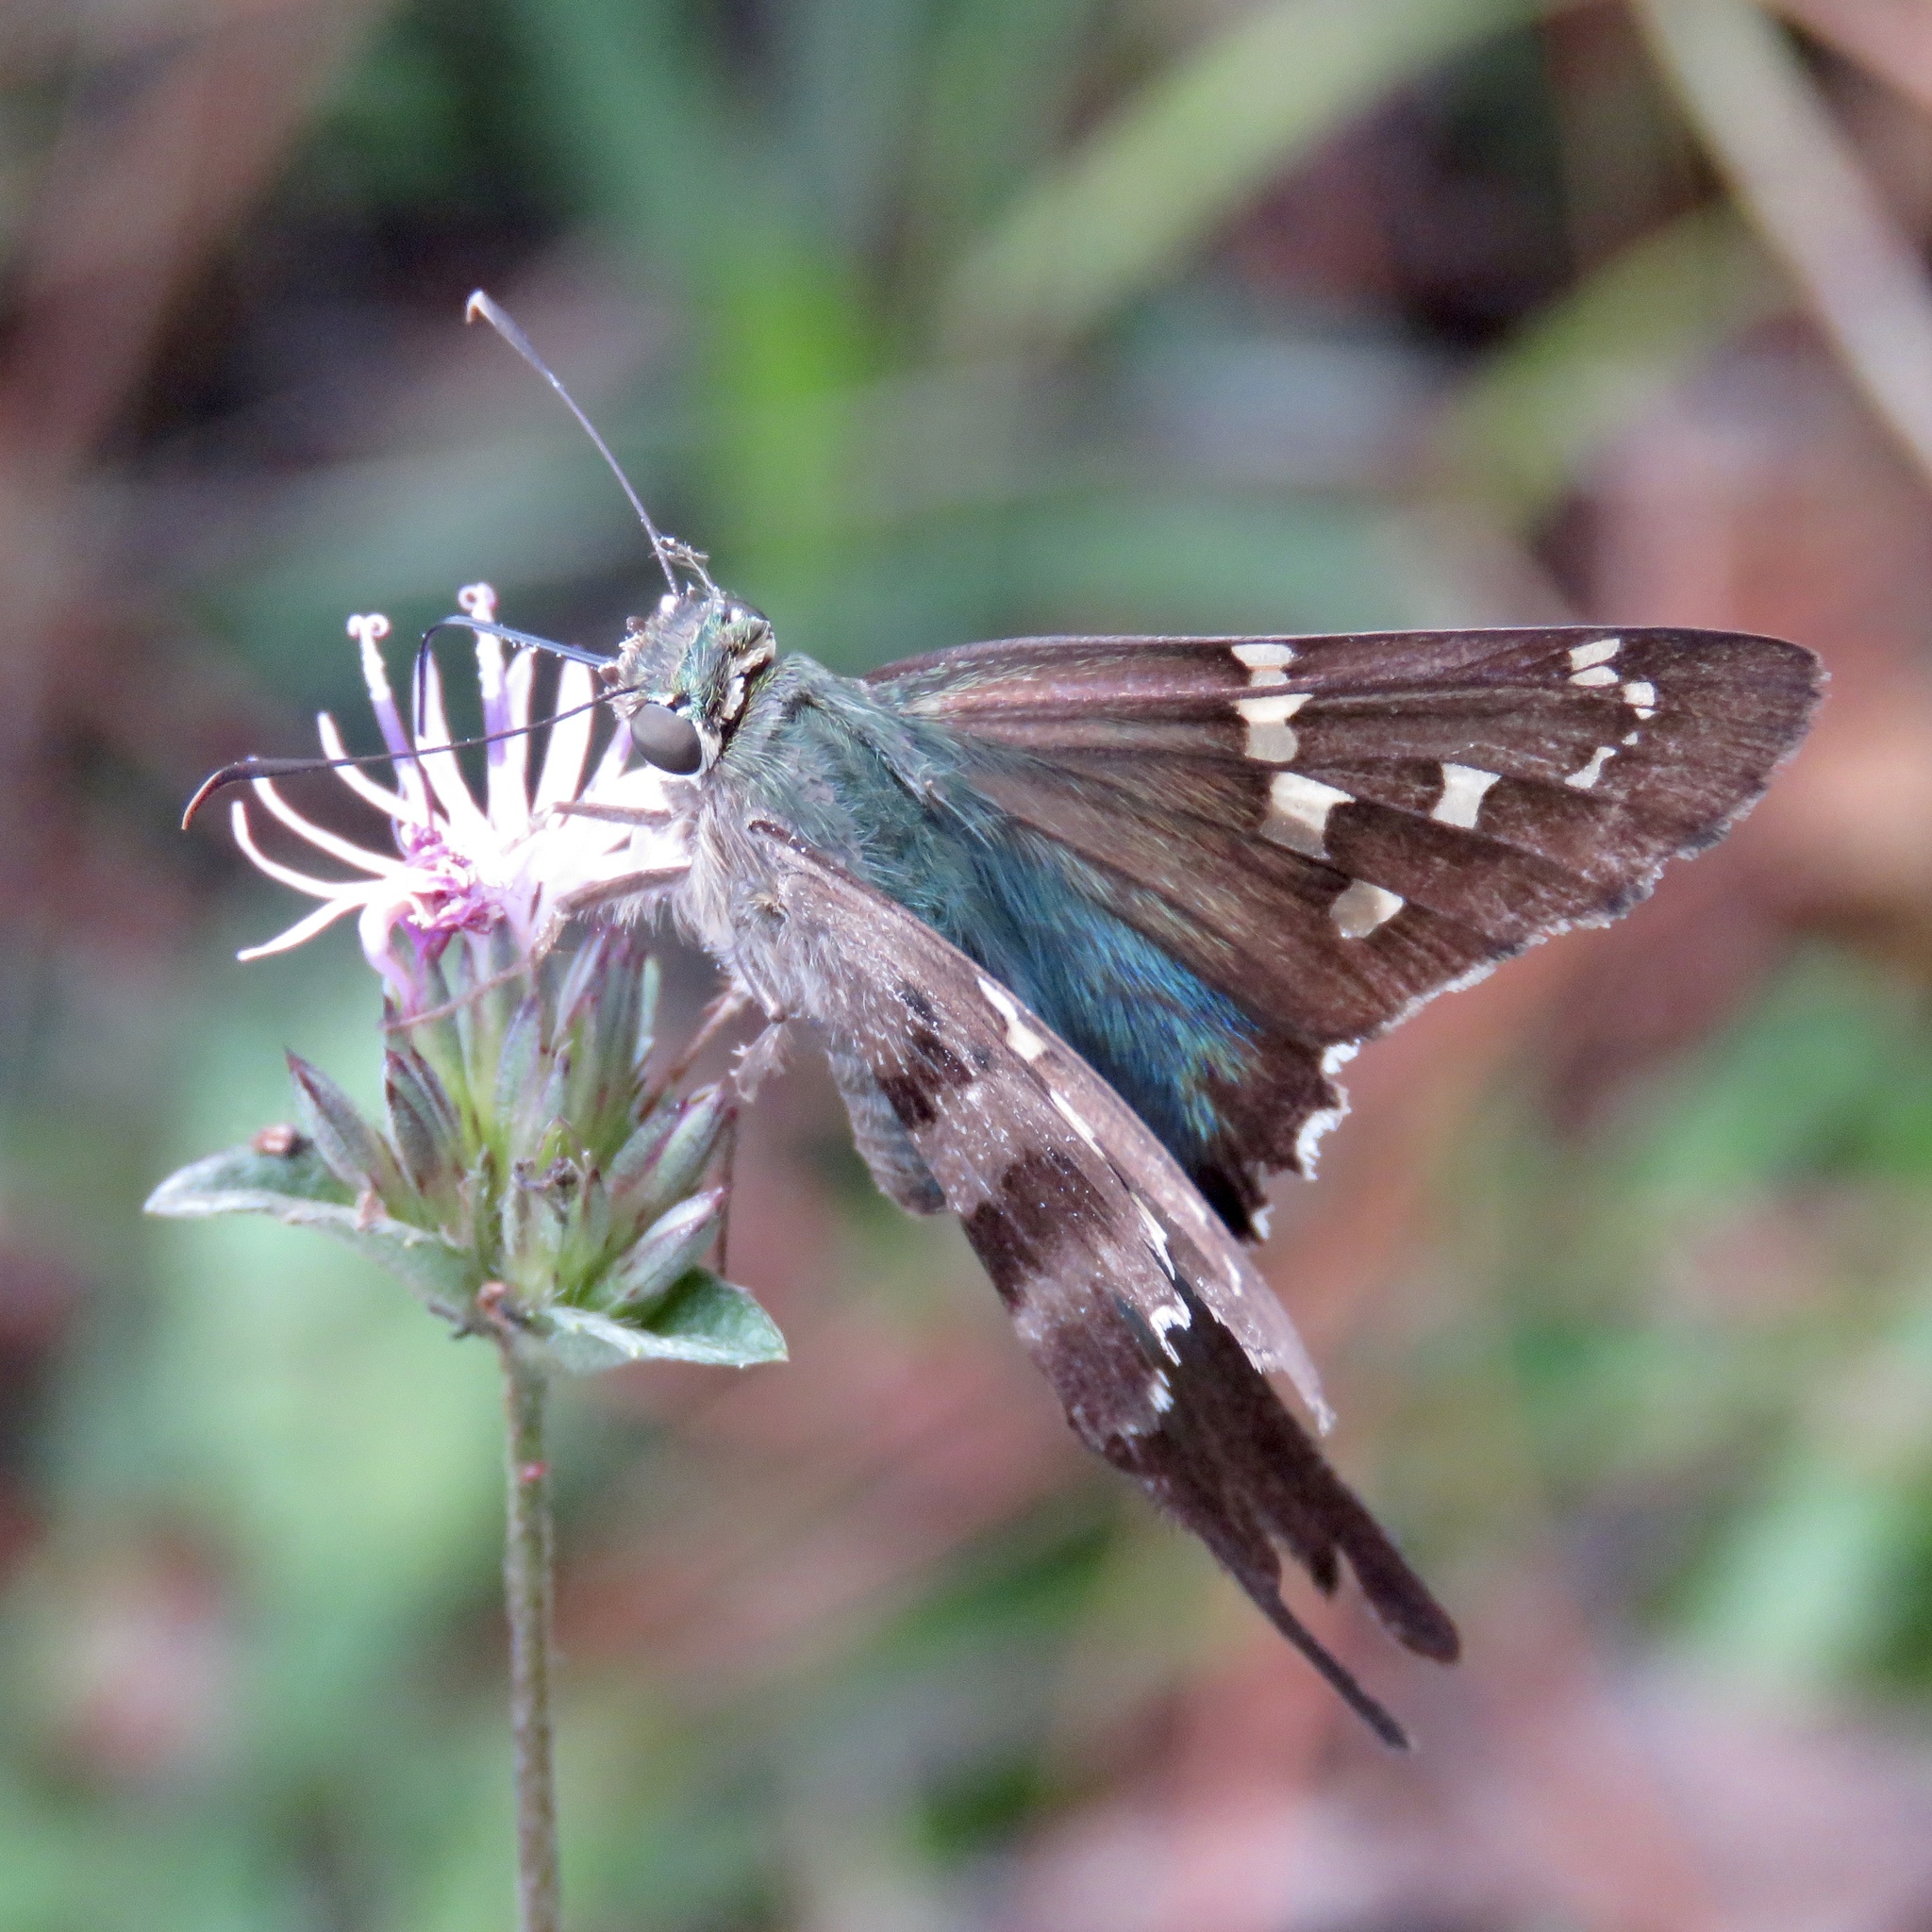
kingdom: Animalia
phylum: Arthropoda
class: Insecta
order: Lepidoptera
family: Hesperiidae
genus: Urbanus
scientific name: Urbanus proteus
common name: Long-tailed skipper
